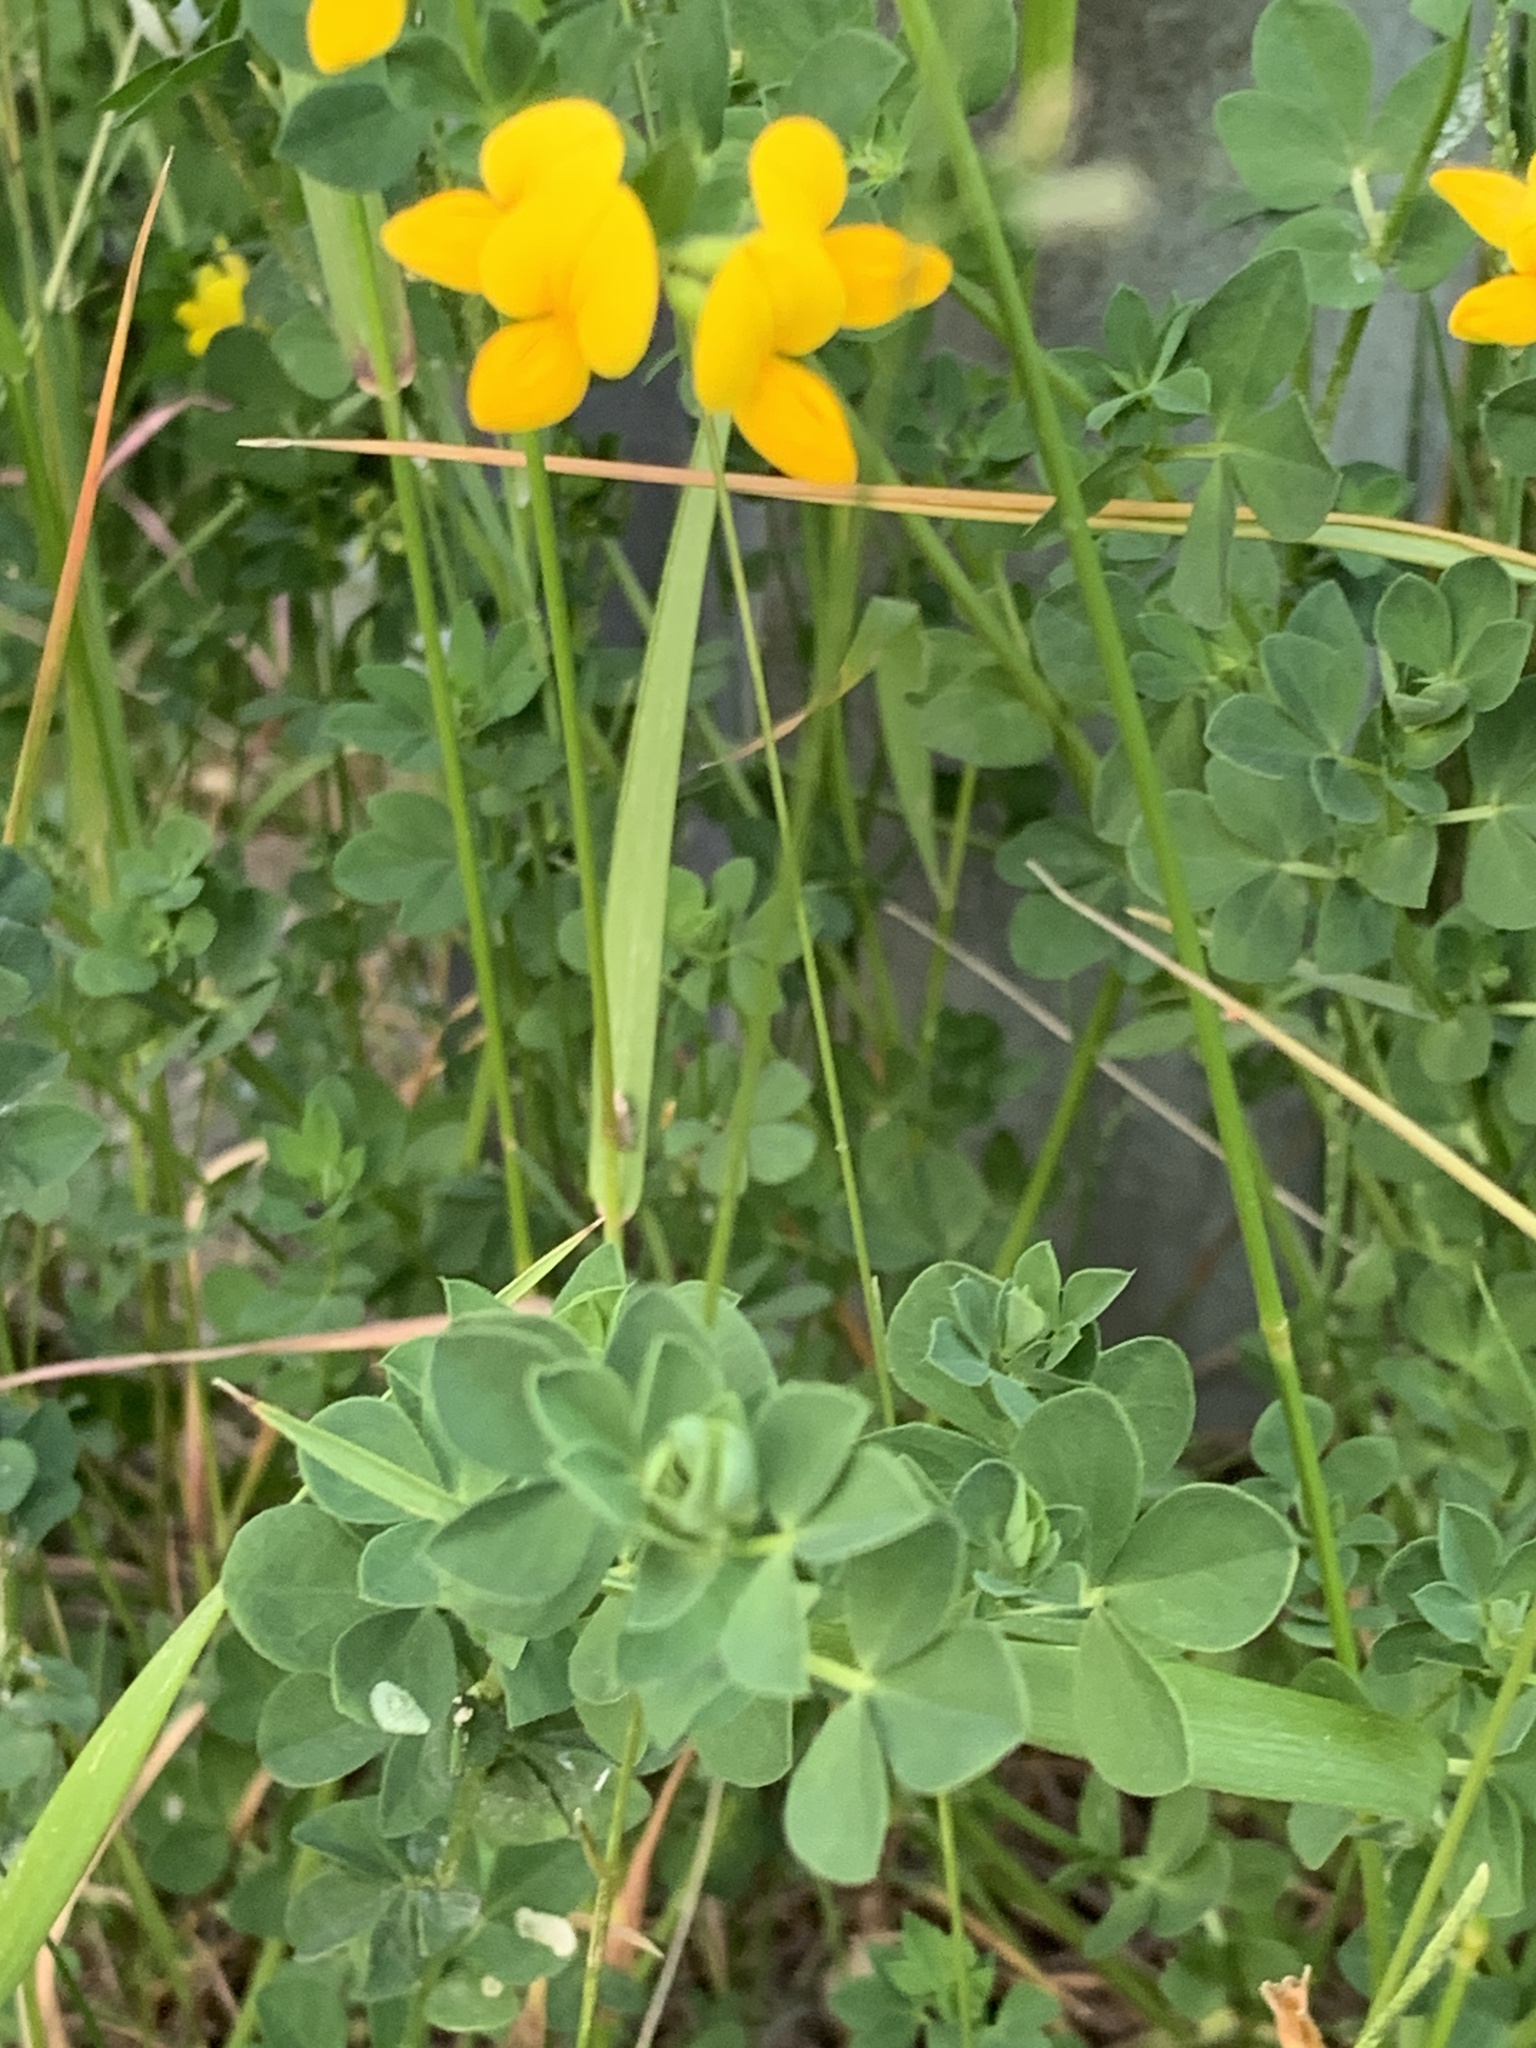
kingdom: Plantae
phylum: Tracheophyta
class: Magnoliopsida
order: Fabales
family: Fabaceae
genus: Lotus
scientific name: Lotus corniculatus
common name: Common bird's-foot-trefoil
